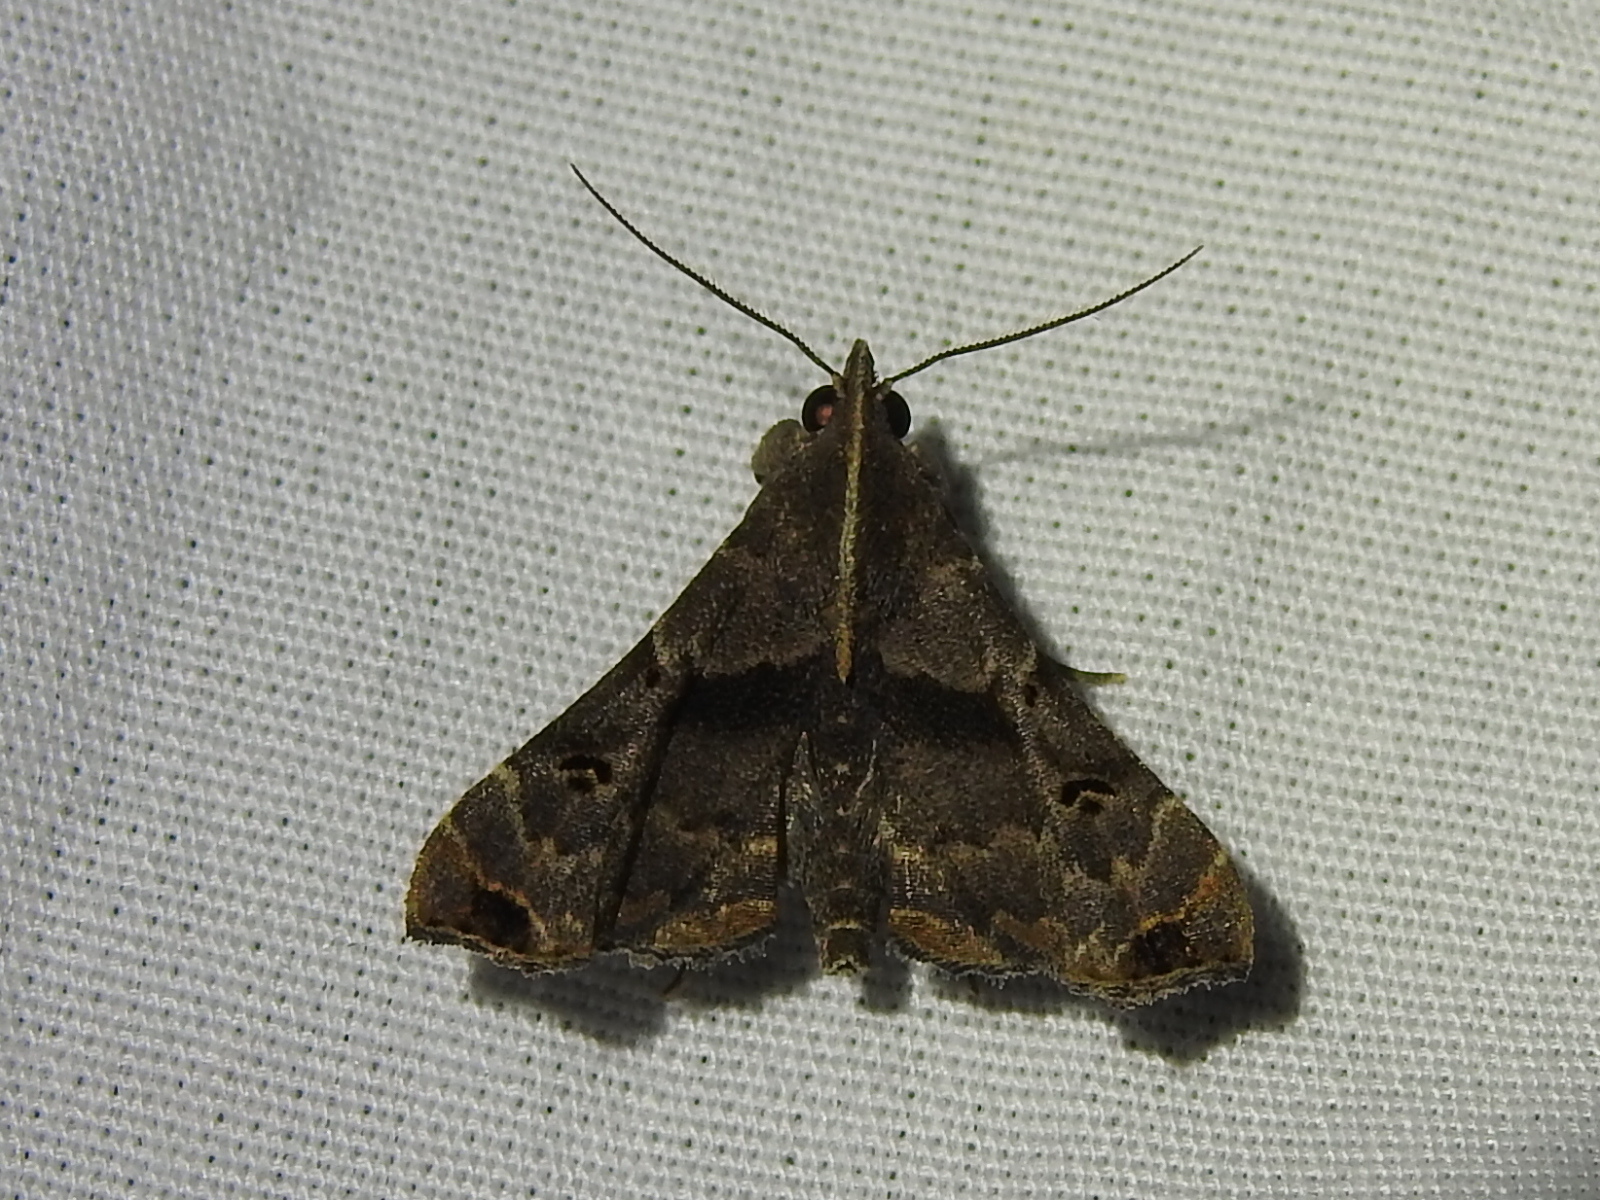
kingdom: Animalia
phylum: Arthropoda
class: Insecta
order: Lepidoptera
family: Erebidae
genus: Palthis
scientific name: Palthis asopialis
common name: Faint-spotted palthis moth
